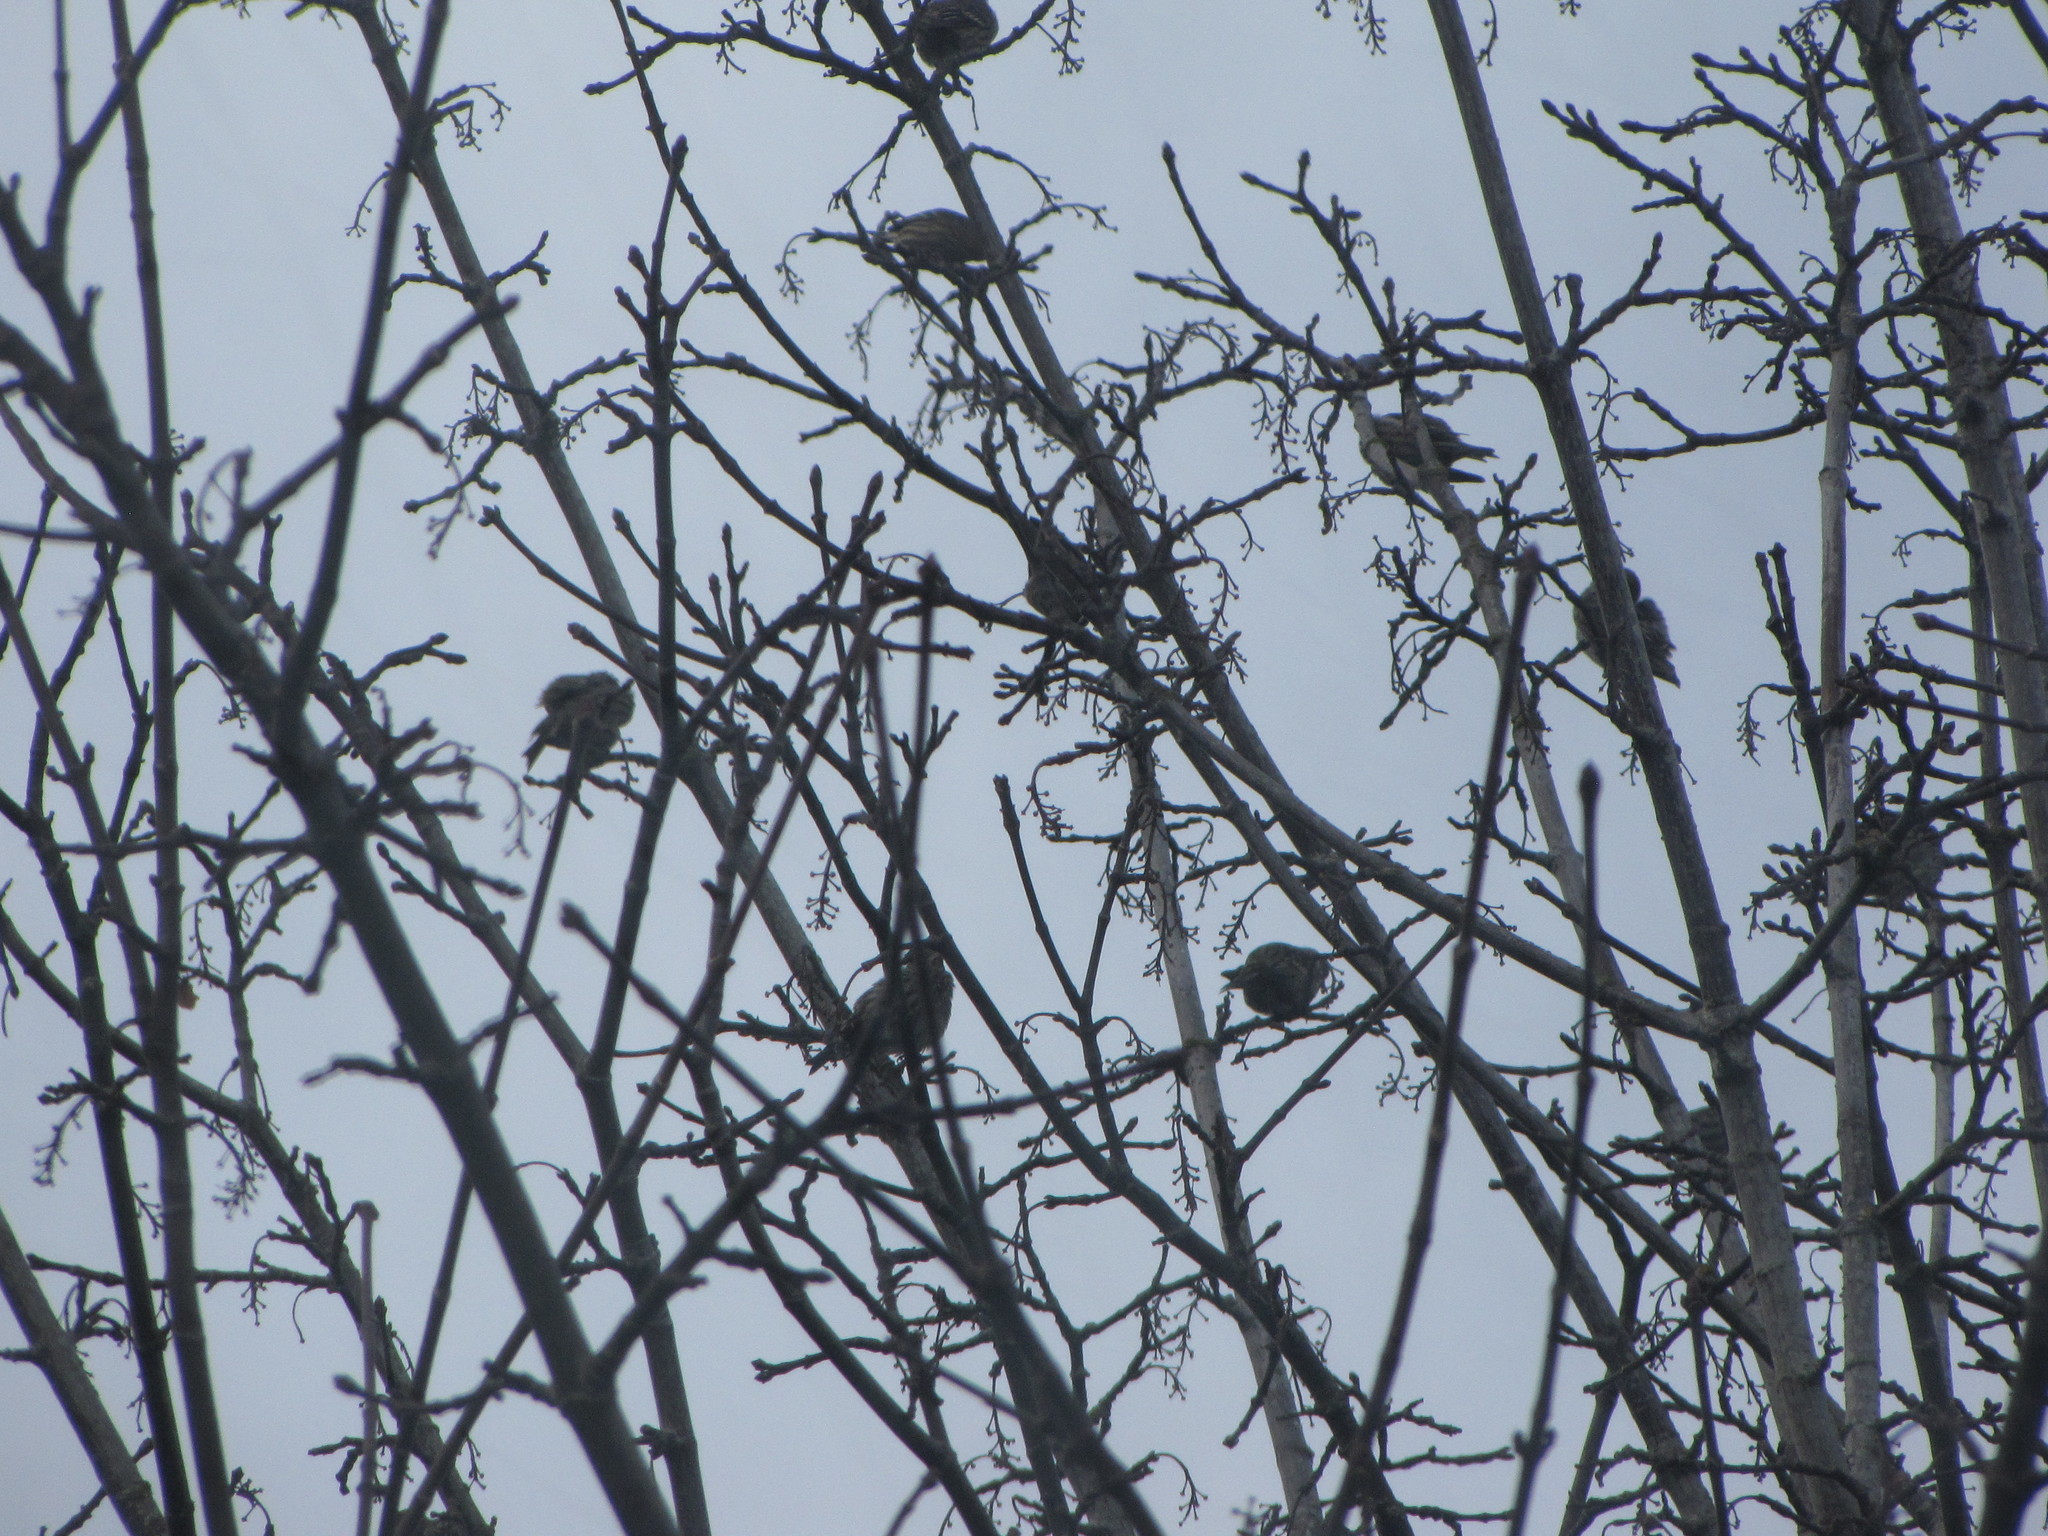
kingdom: Animalia
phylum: Chordata
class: Aves
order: Passeriformes
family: Fringillidae
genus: Spinus
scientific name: Spinus pinus
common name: Pine siskin
